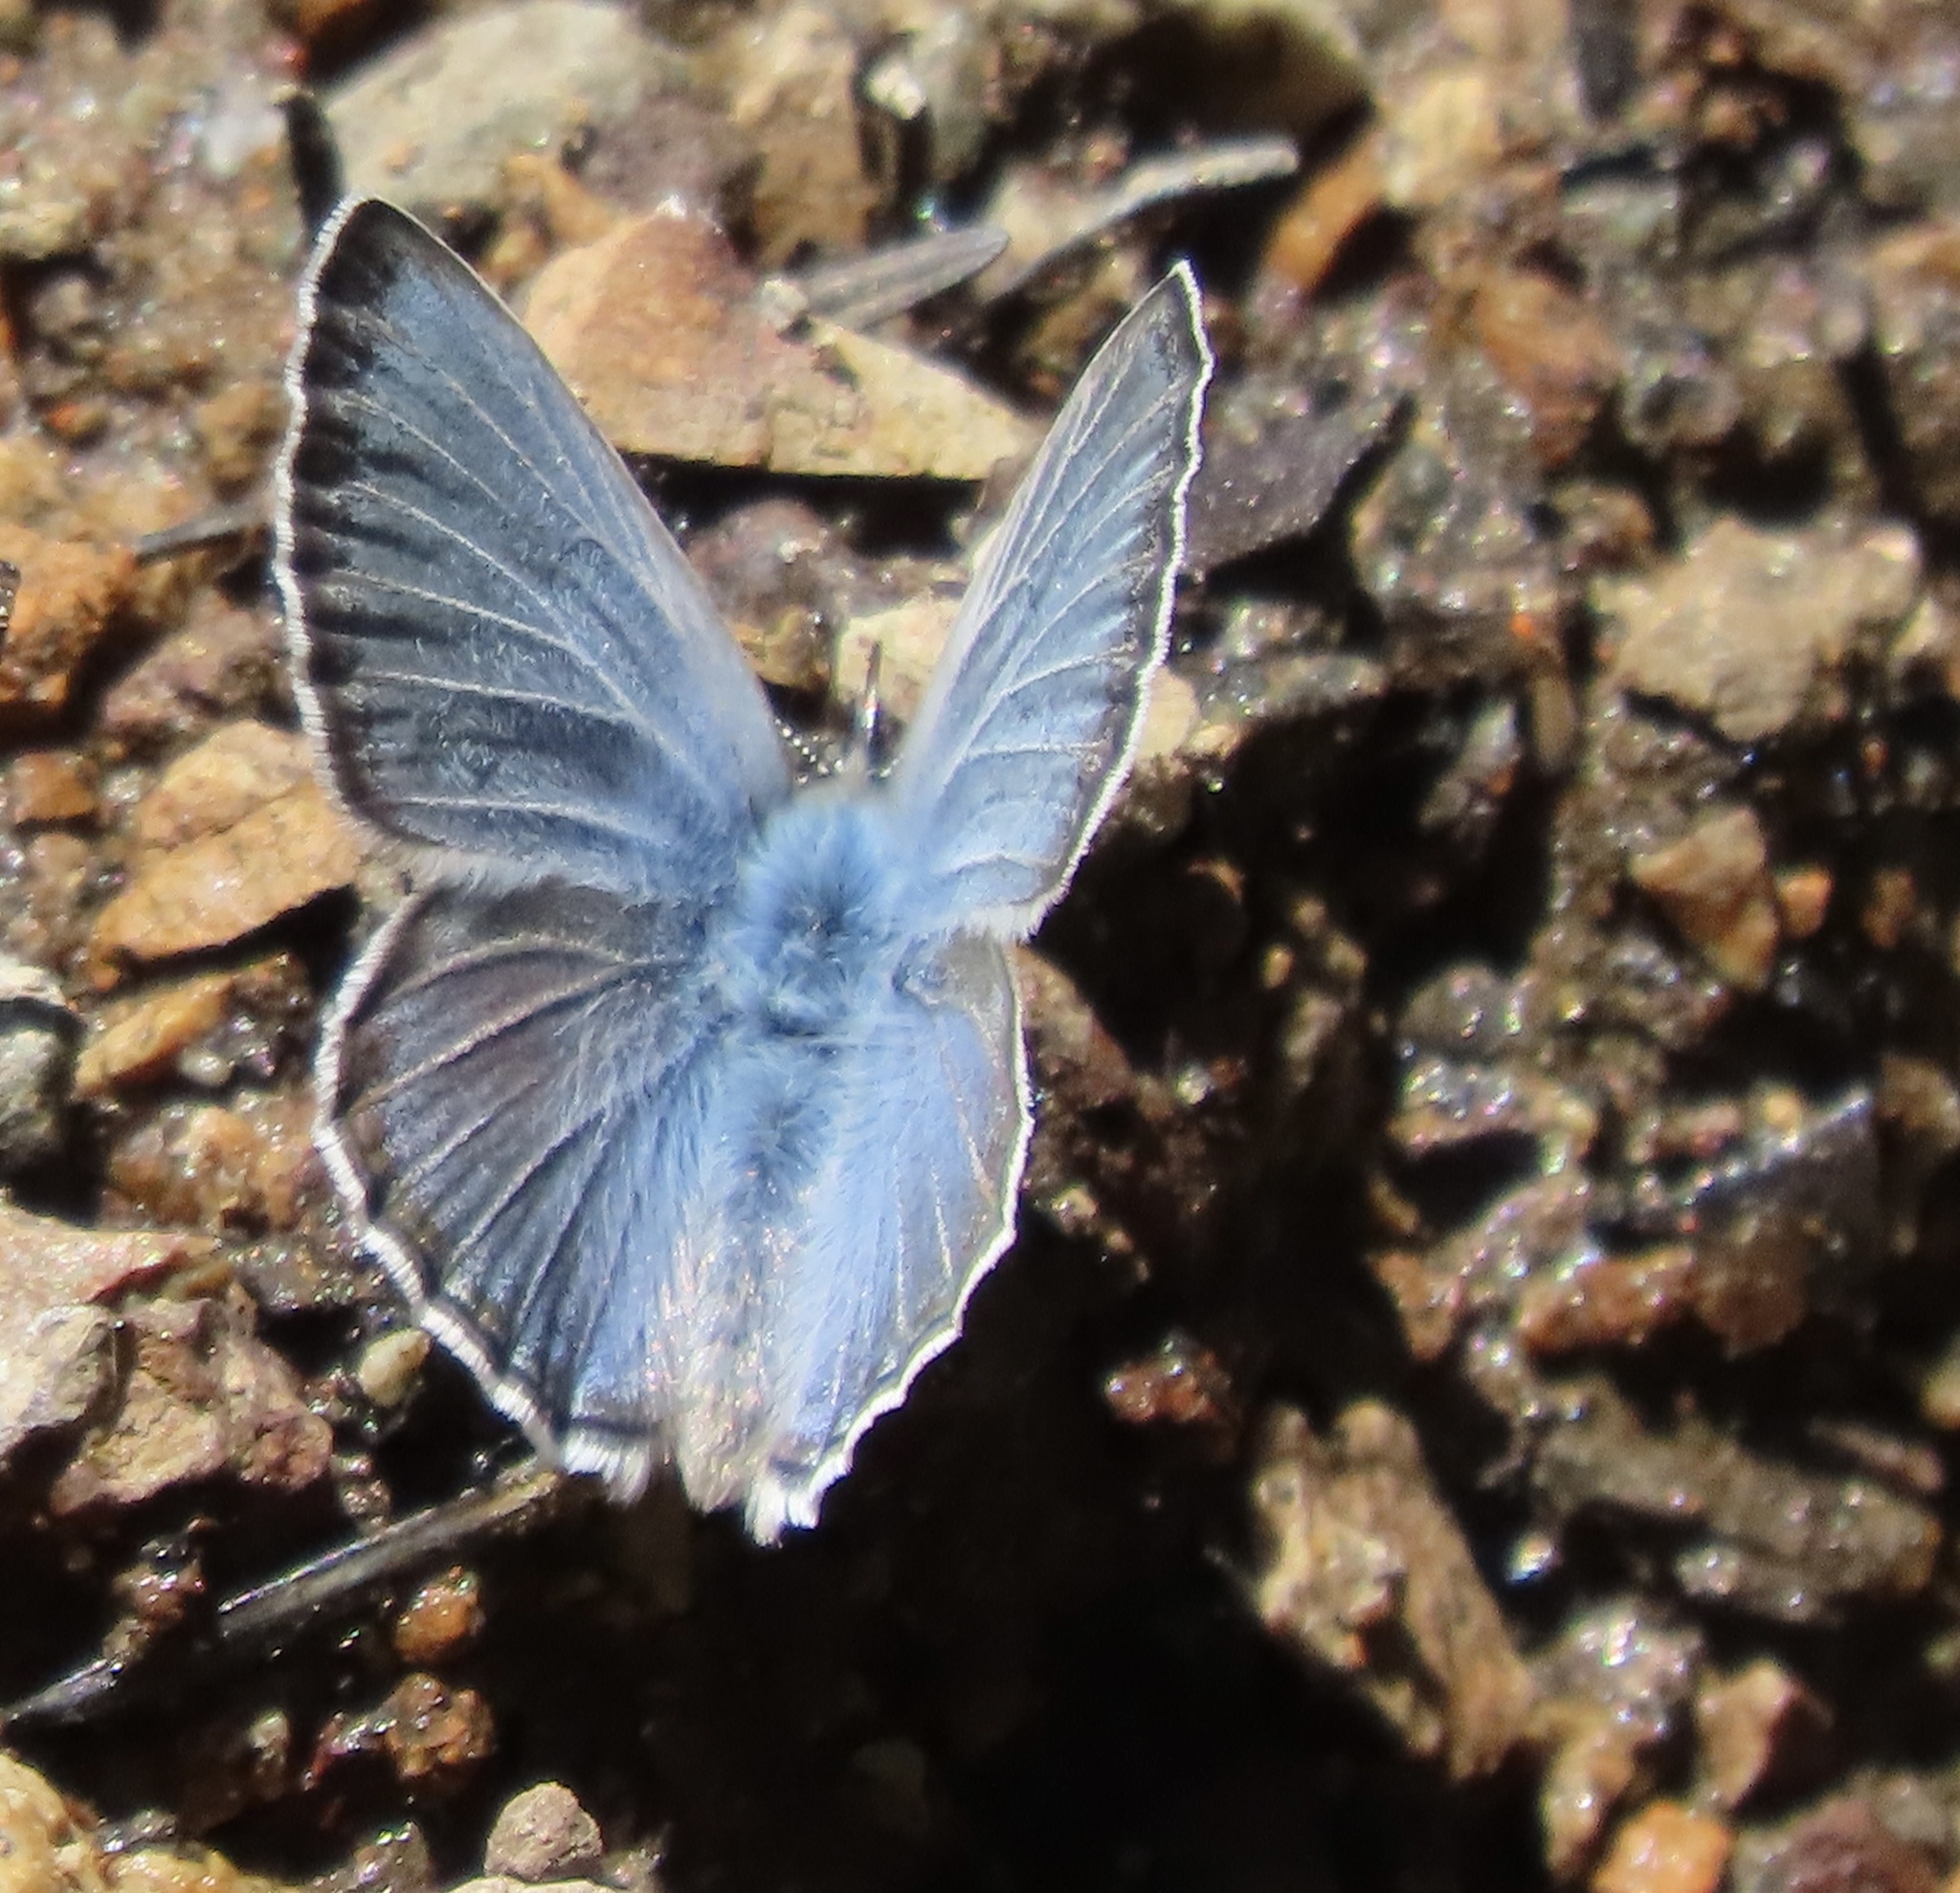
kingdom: Animalia
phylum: Arthropoda
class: Insecta
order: Lepidoptera
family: Lycaenidae
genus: Icaricia
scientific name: Icaricia icarioides
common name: Boisduval's blue
